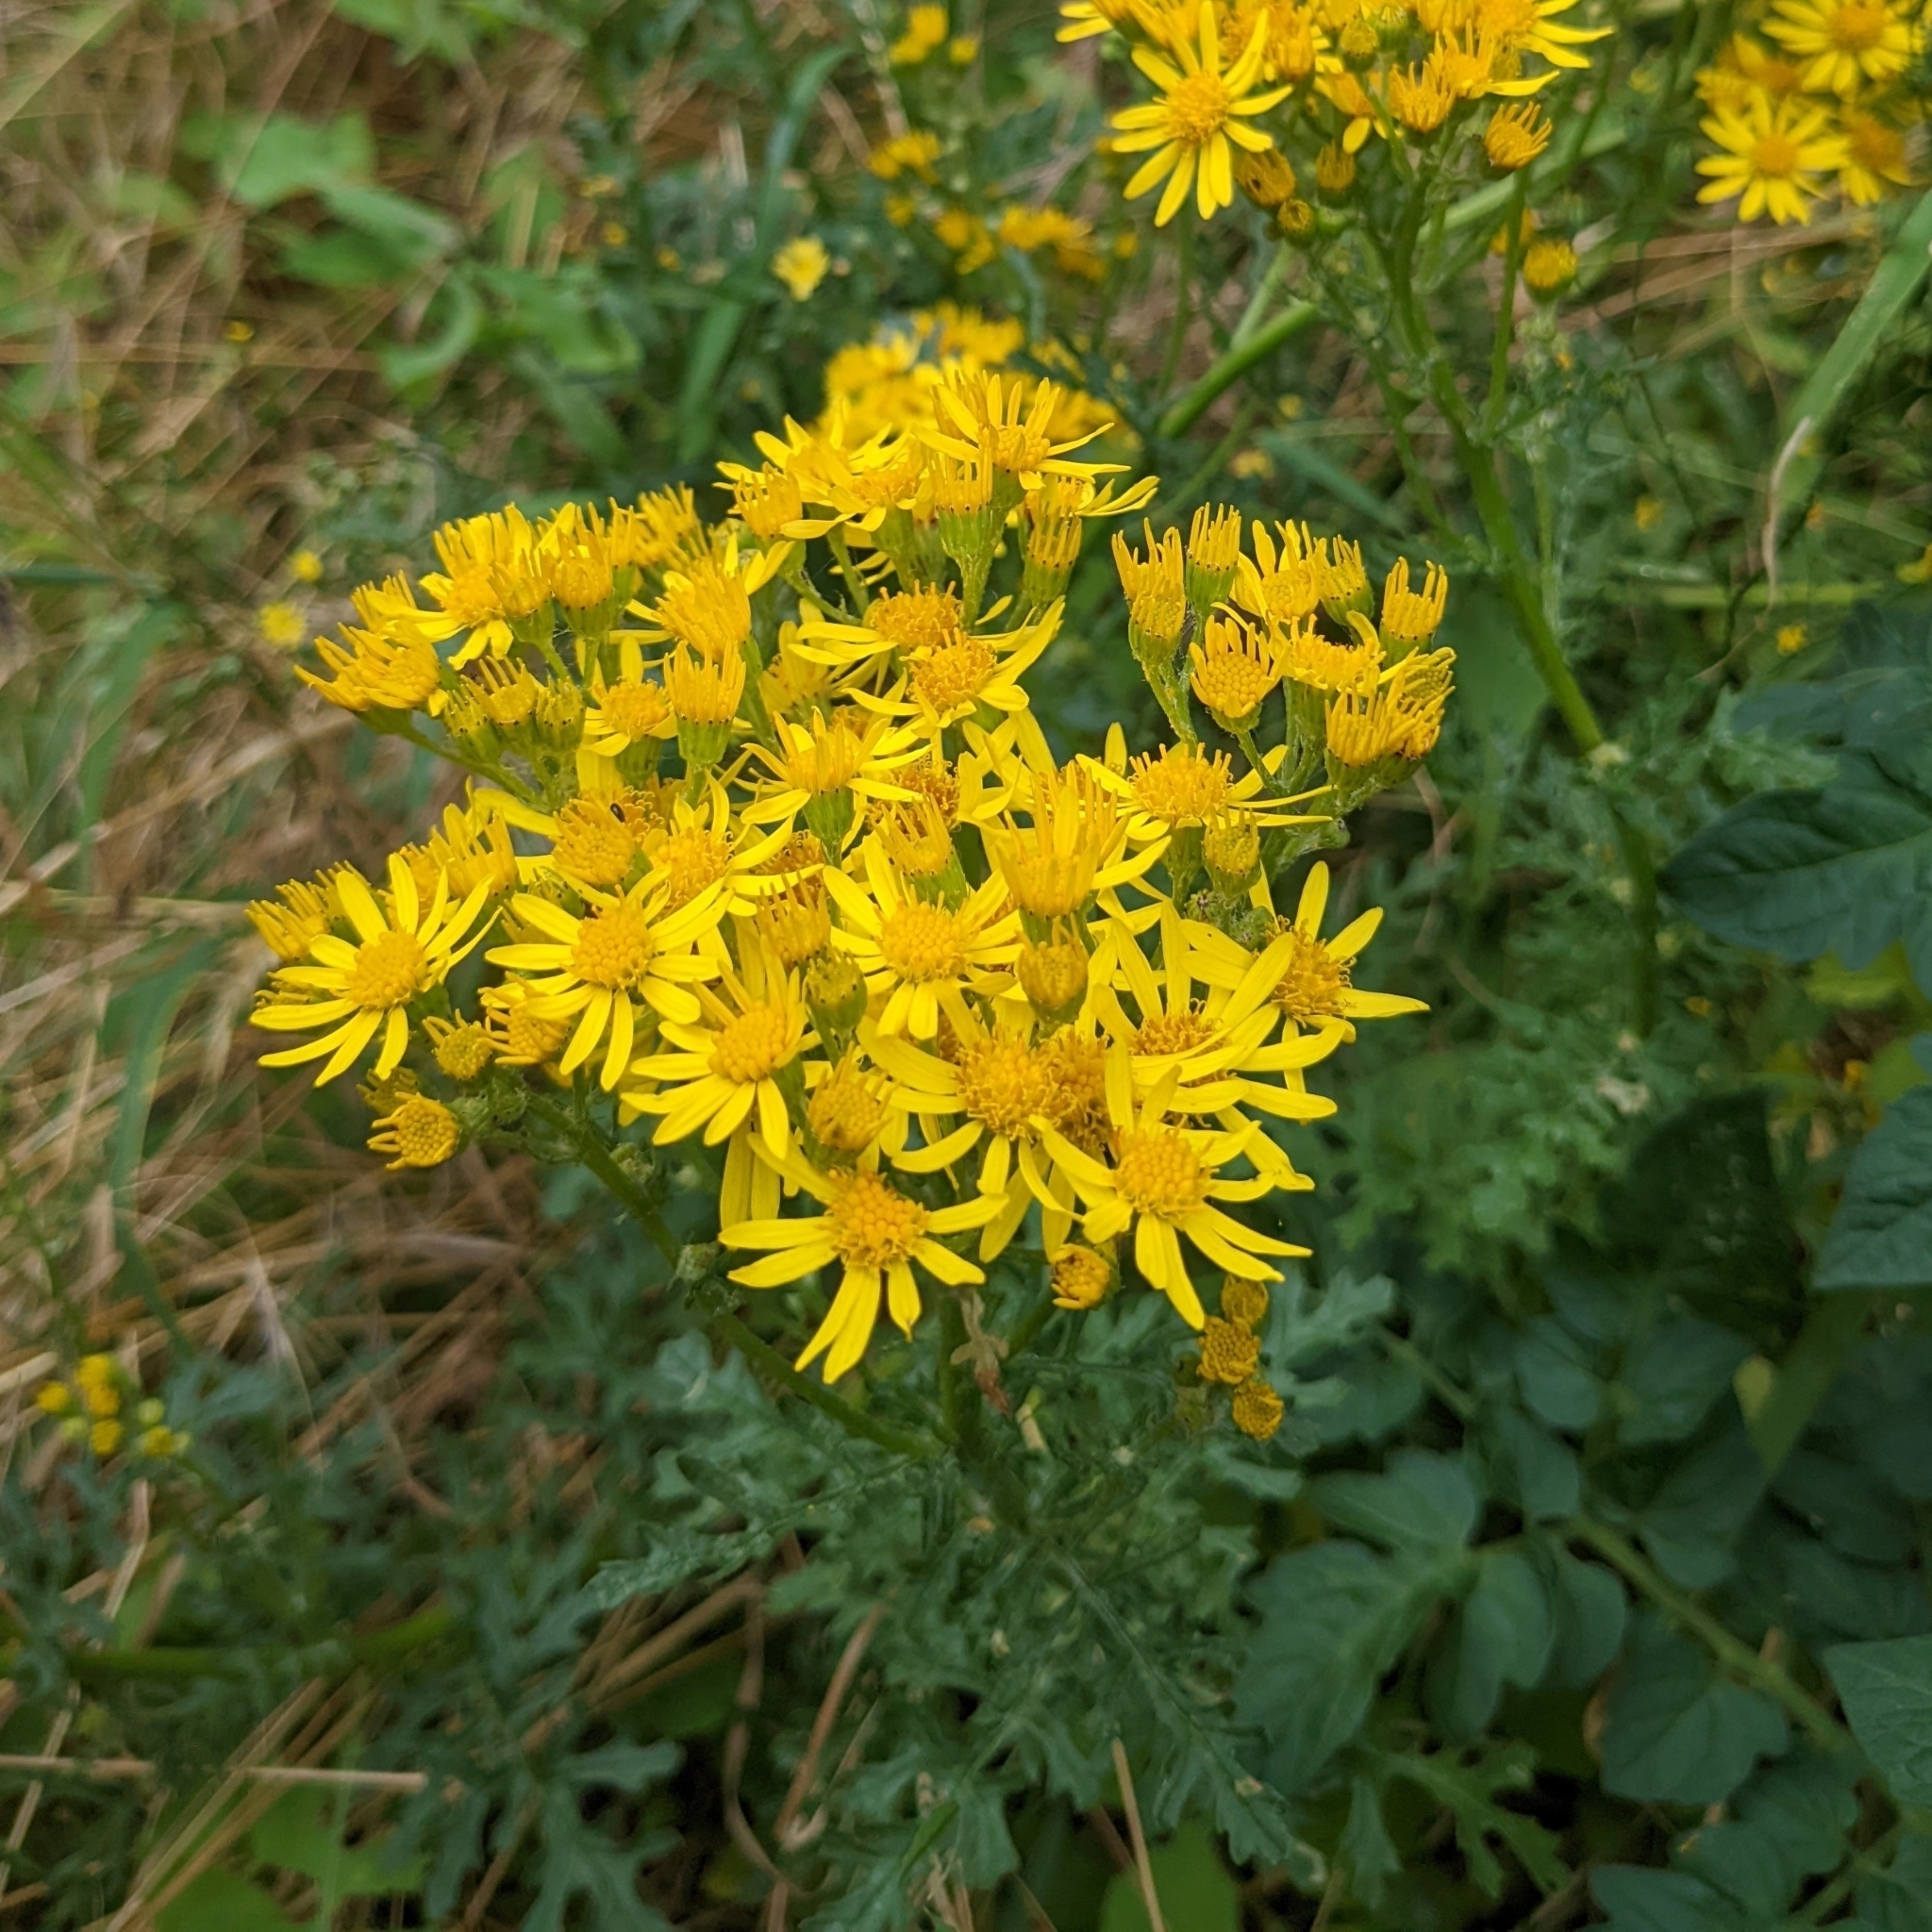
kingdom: Plantae
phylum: Tracheophyta
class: Magnoliopsida
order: Asterales
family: Asteraceae
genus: Jacobaea
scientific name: Jacobaea vulgaris
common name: Stinking willie
